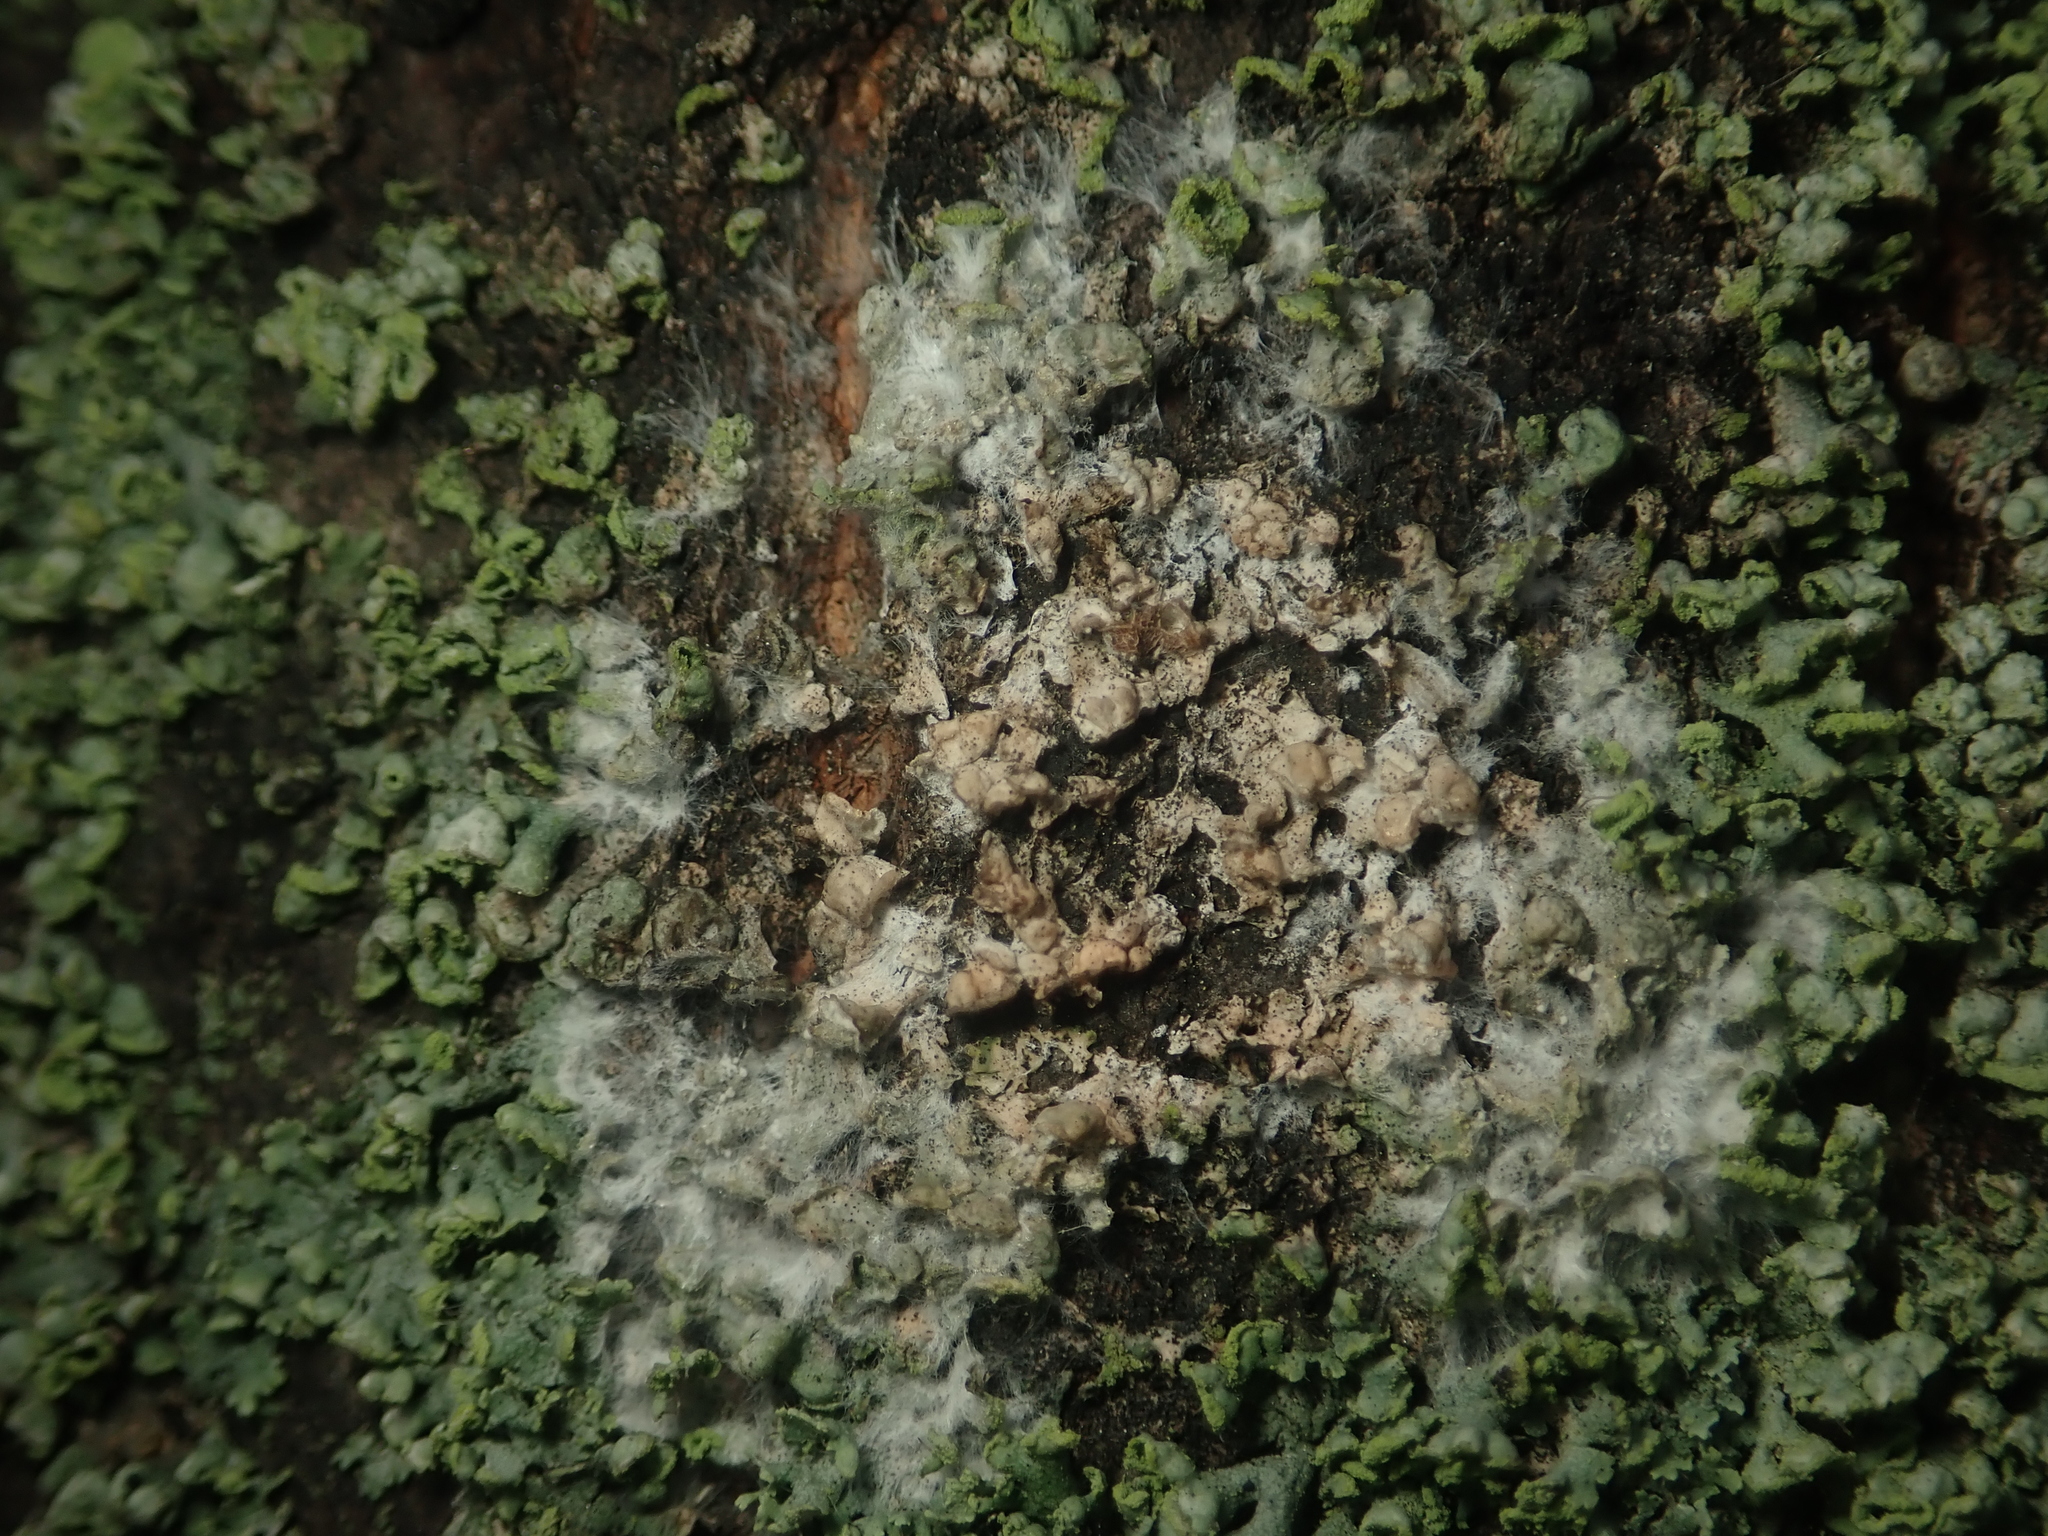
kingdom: Fungi
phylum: Basidiomycota
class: Agaricomycetes
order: Atheliales
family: Atheliaceae
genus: Athelia
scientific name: Athelia arachnoidea
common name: Candelabra duster
